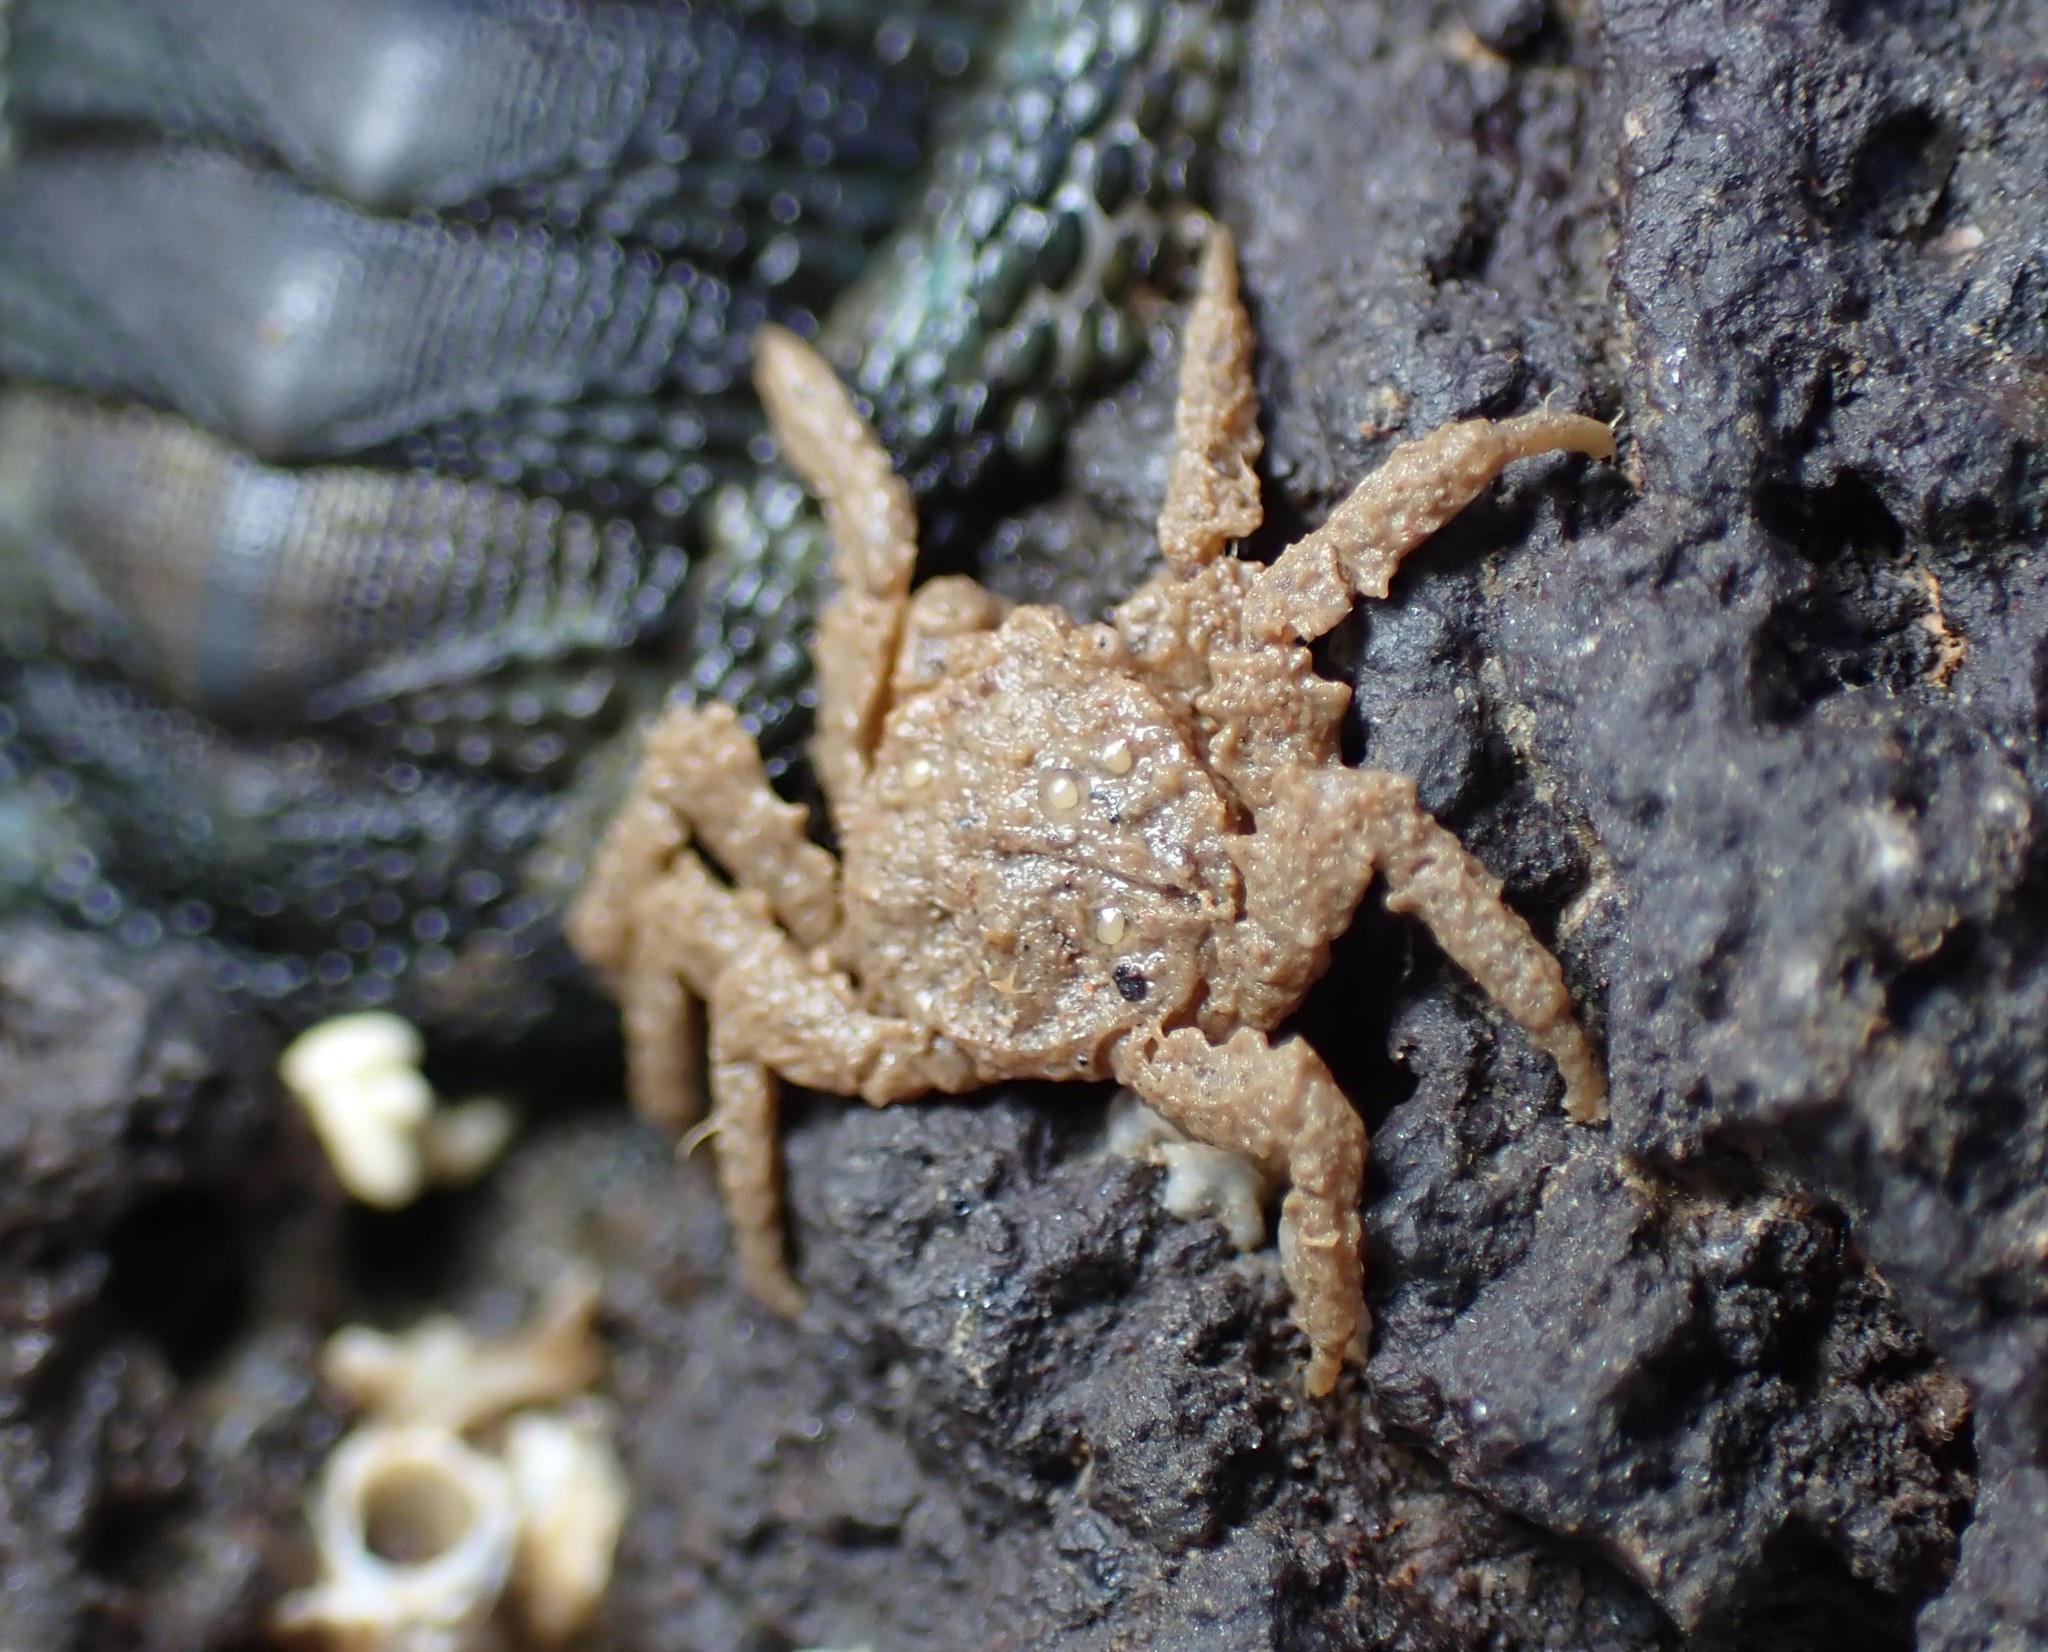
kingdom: Animalia
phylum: Arthropoda
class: Malacostraca
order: Decapoda
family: Hymenosomatidae
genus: Neohymenicus
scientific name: Neohymenicus pubescens
